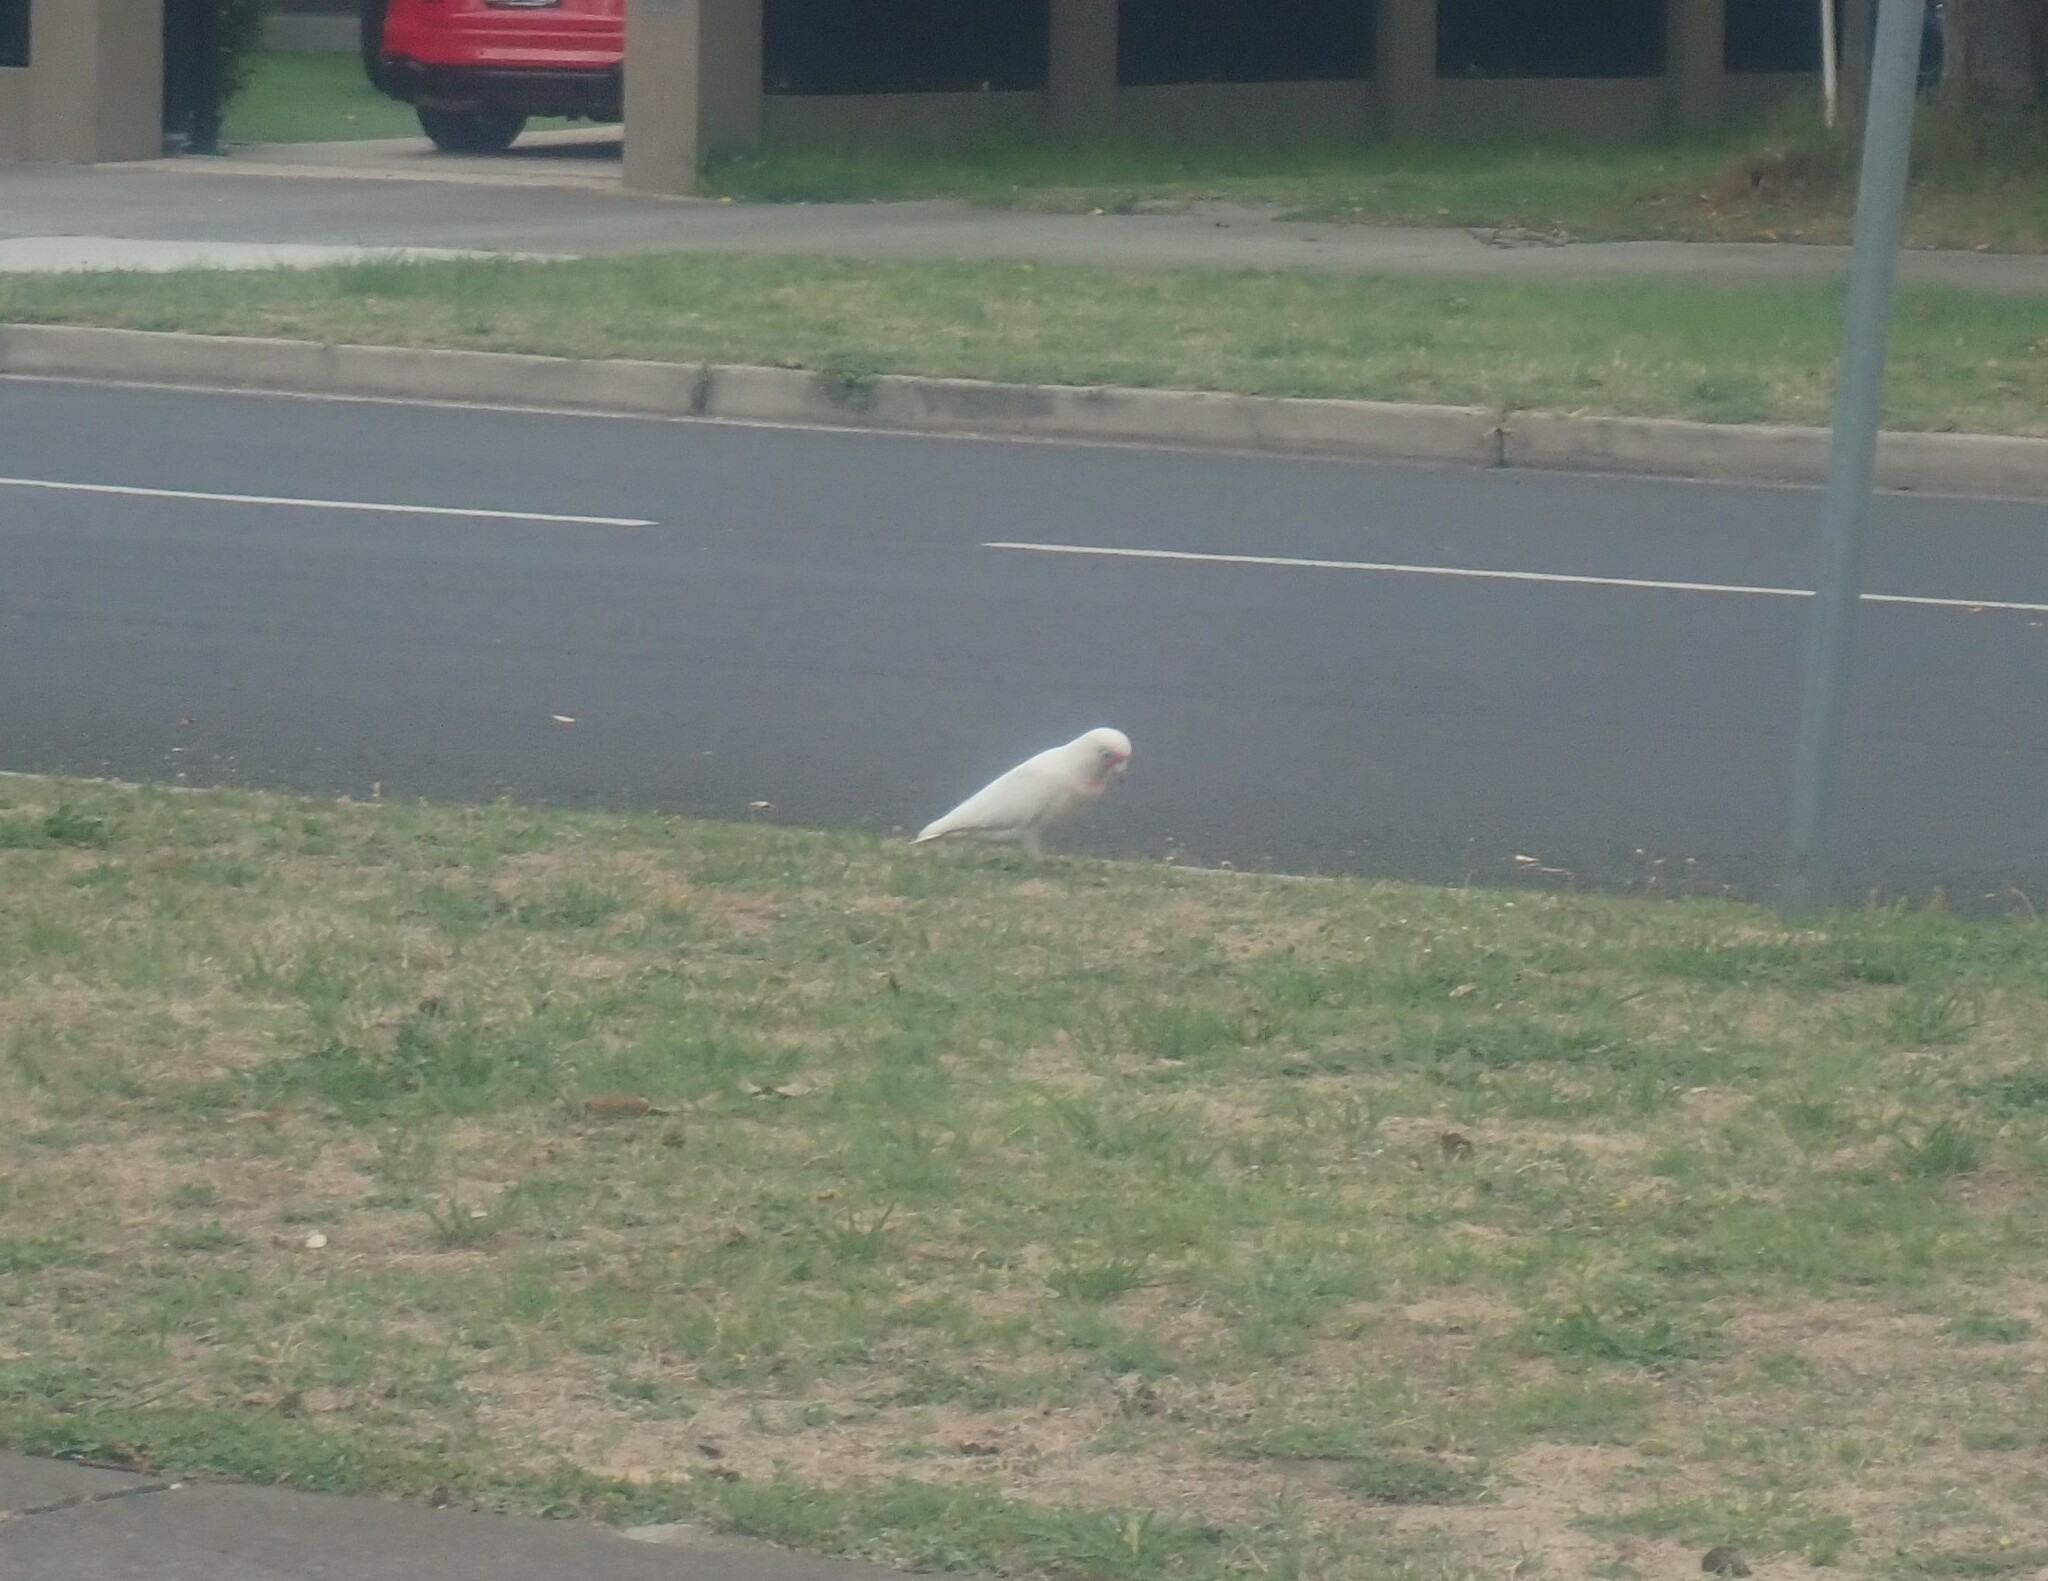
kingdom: Animalia
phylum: Chordata
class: Aves
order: Psittaciformes
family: Psittacidae
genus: Cacatua
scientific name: Cacatua tenuirostris
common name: Long-billed corella
